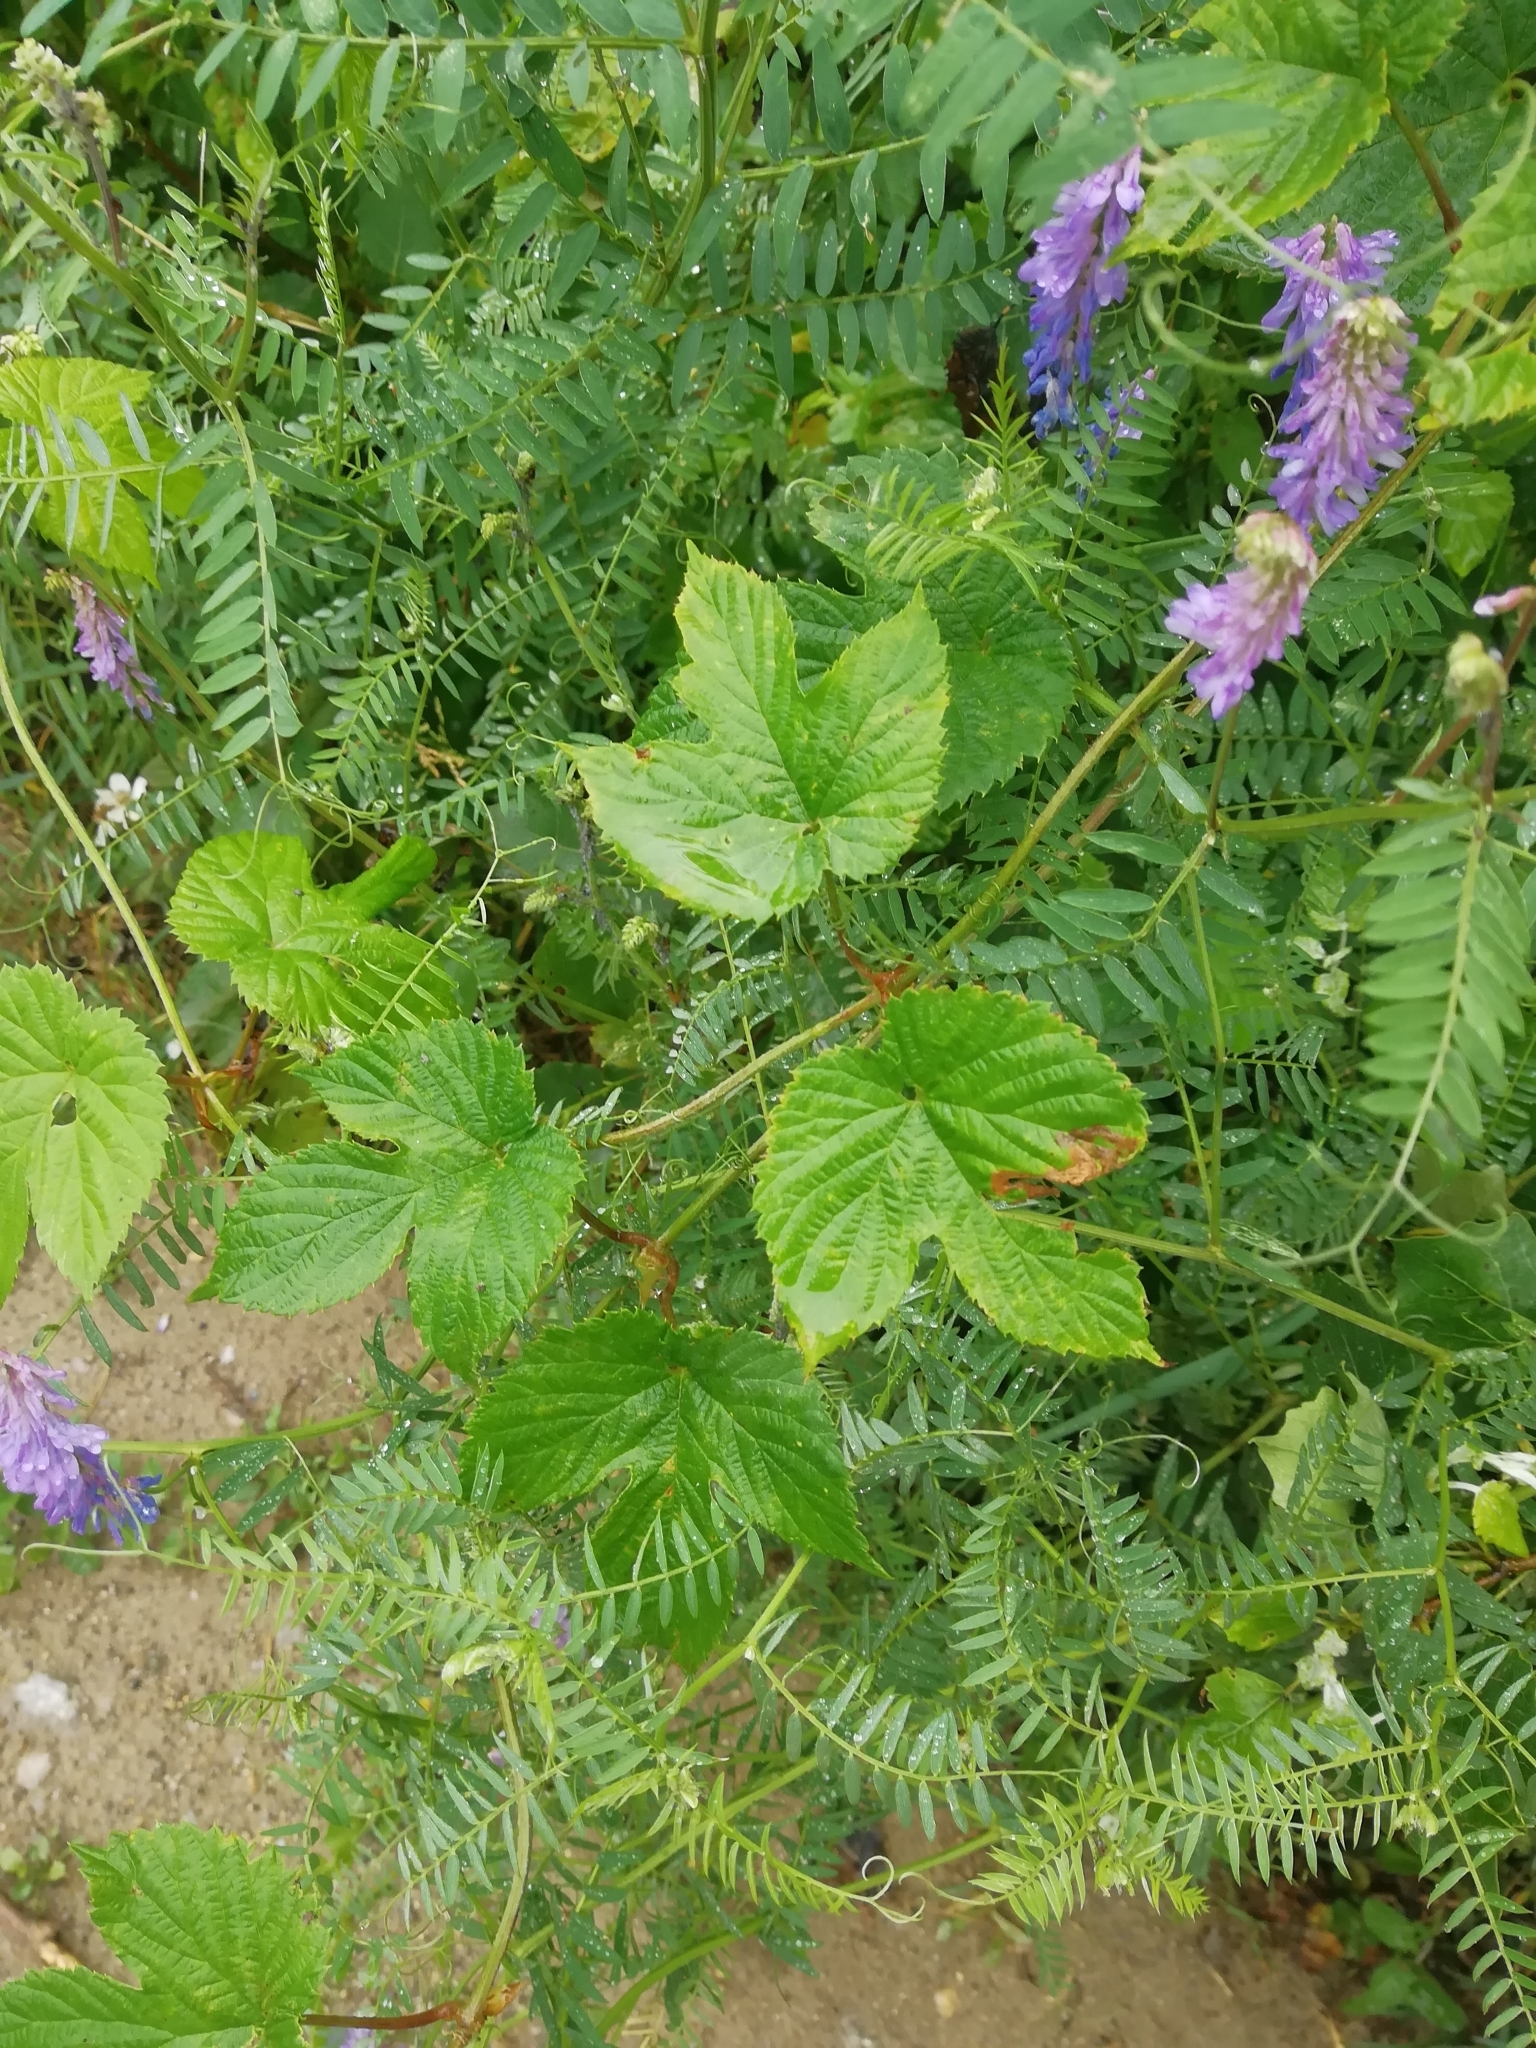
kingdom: Plantae
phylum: Tracheophyta
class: Magnoliopsida
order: Fabales
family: Fabaceae
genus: Vicia
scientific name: Vicia cracca
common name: Bird vetch
